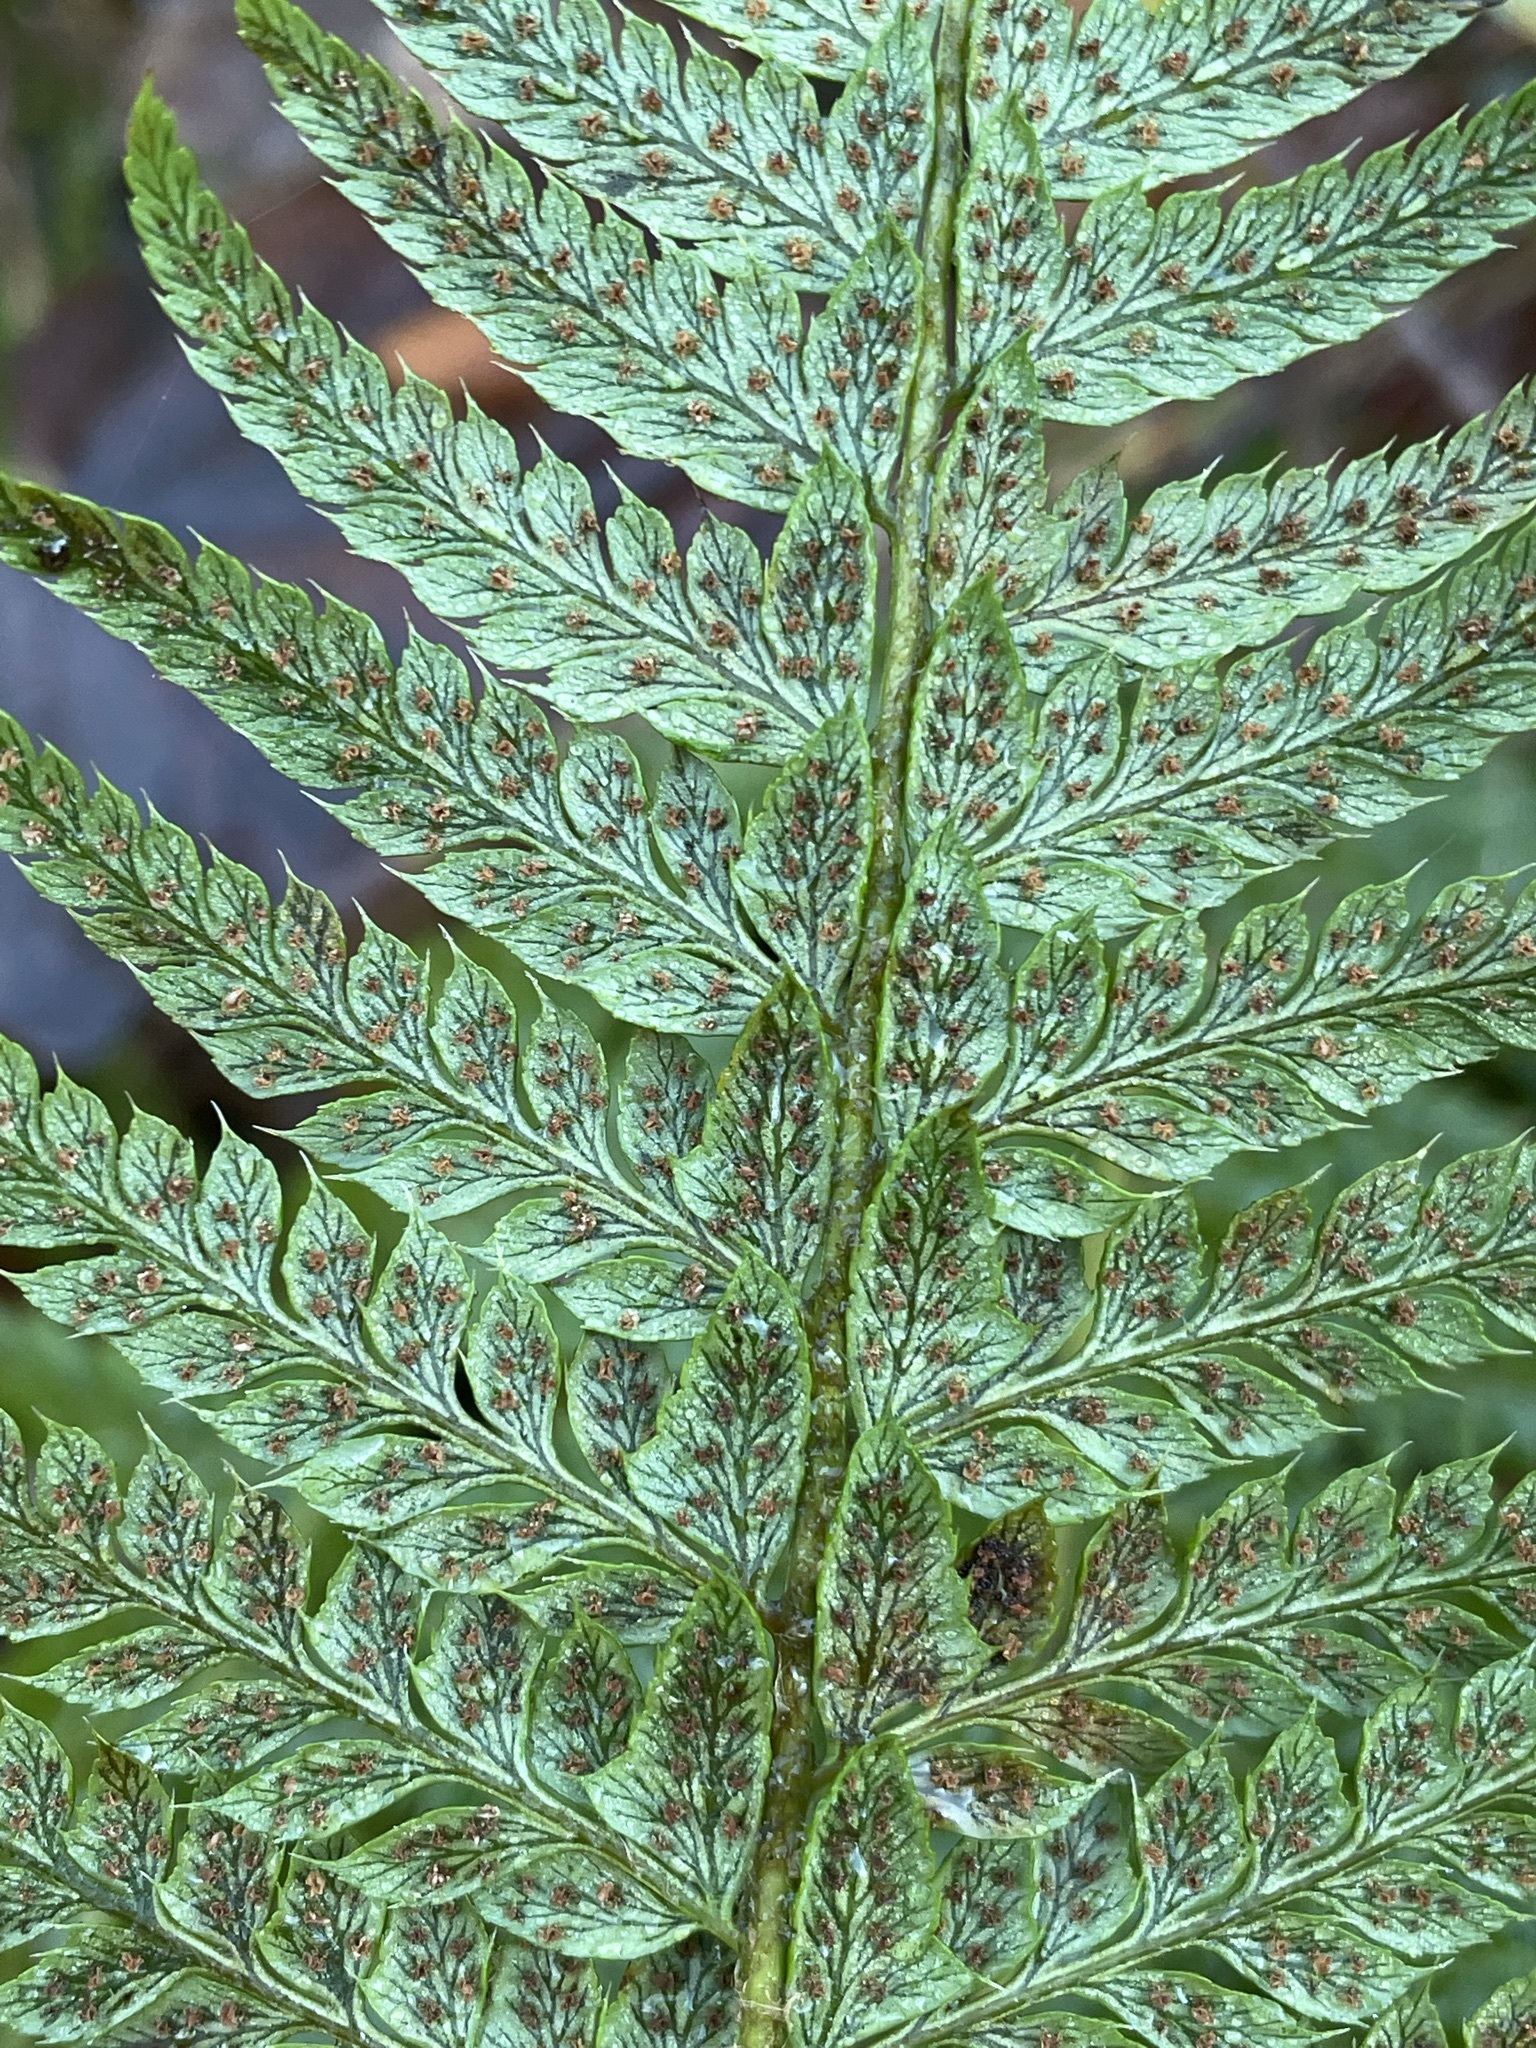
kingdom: Plantae
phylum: Tracheophyta
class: Polypodiopsida
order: Polypodiales
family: Dryopteridaceae
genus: Polystichum
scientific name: Polystichum aculeatum
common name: Hard shield-fern
